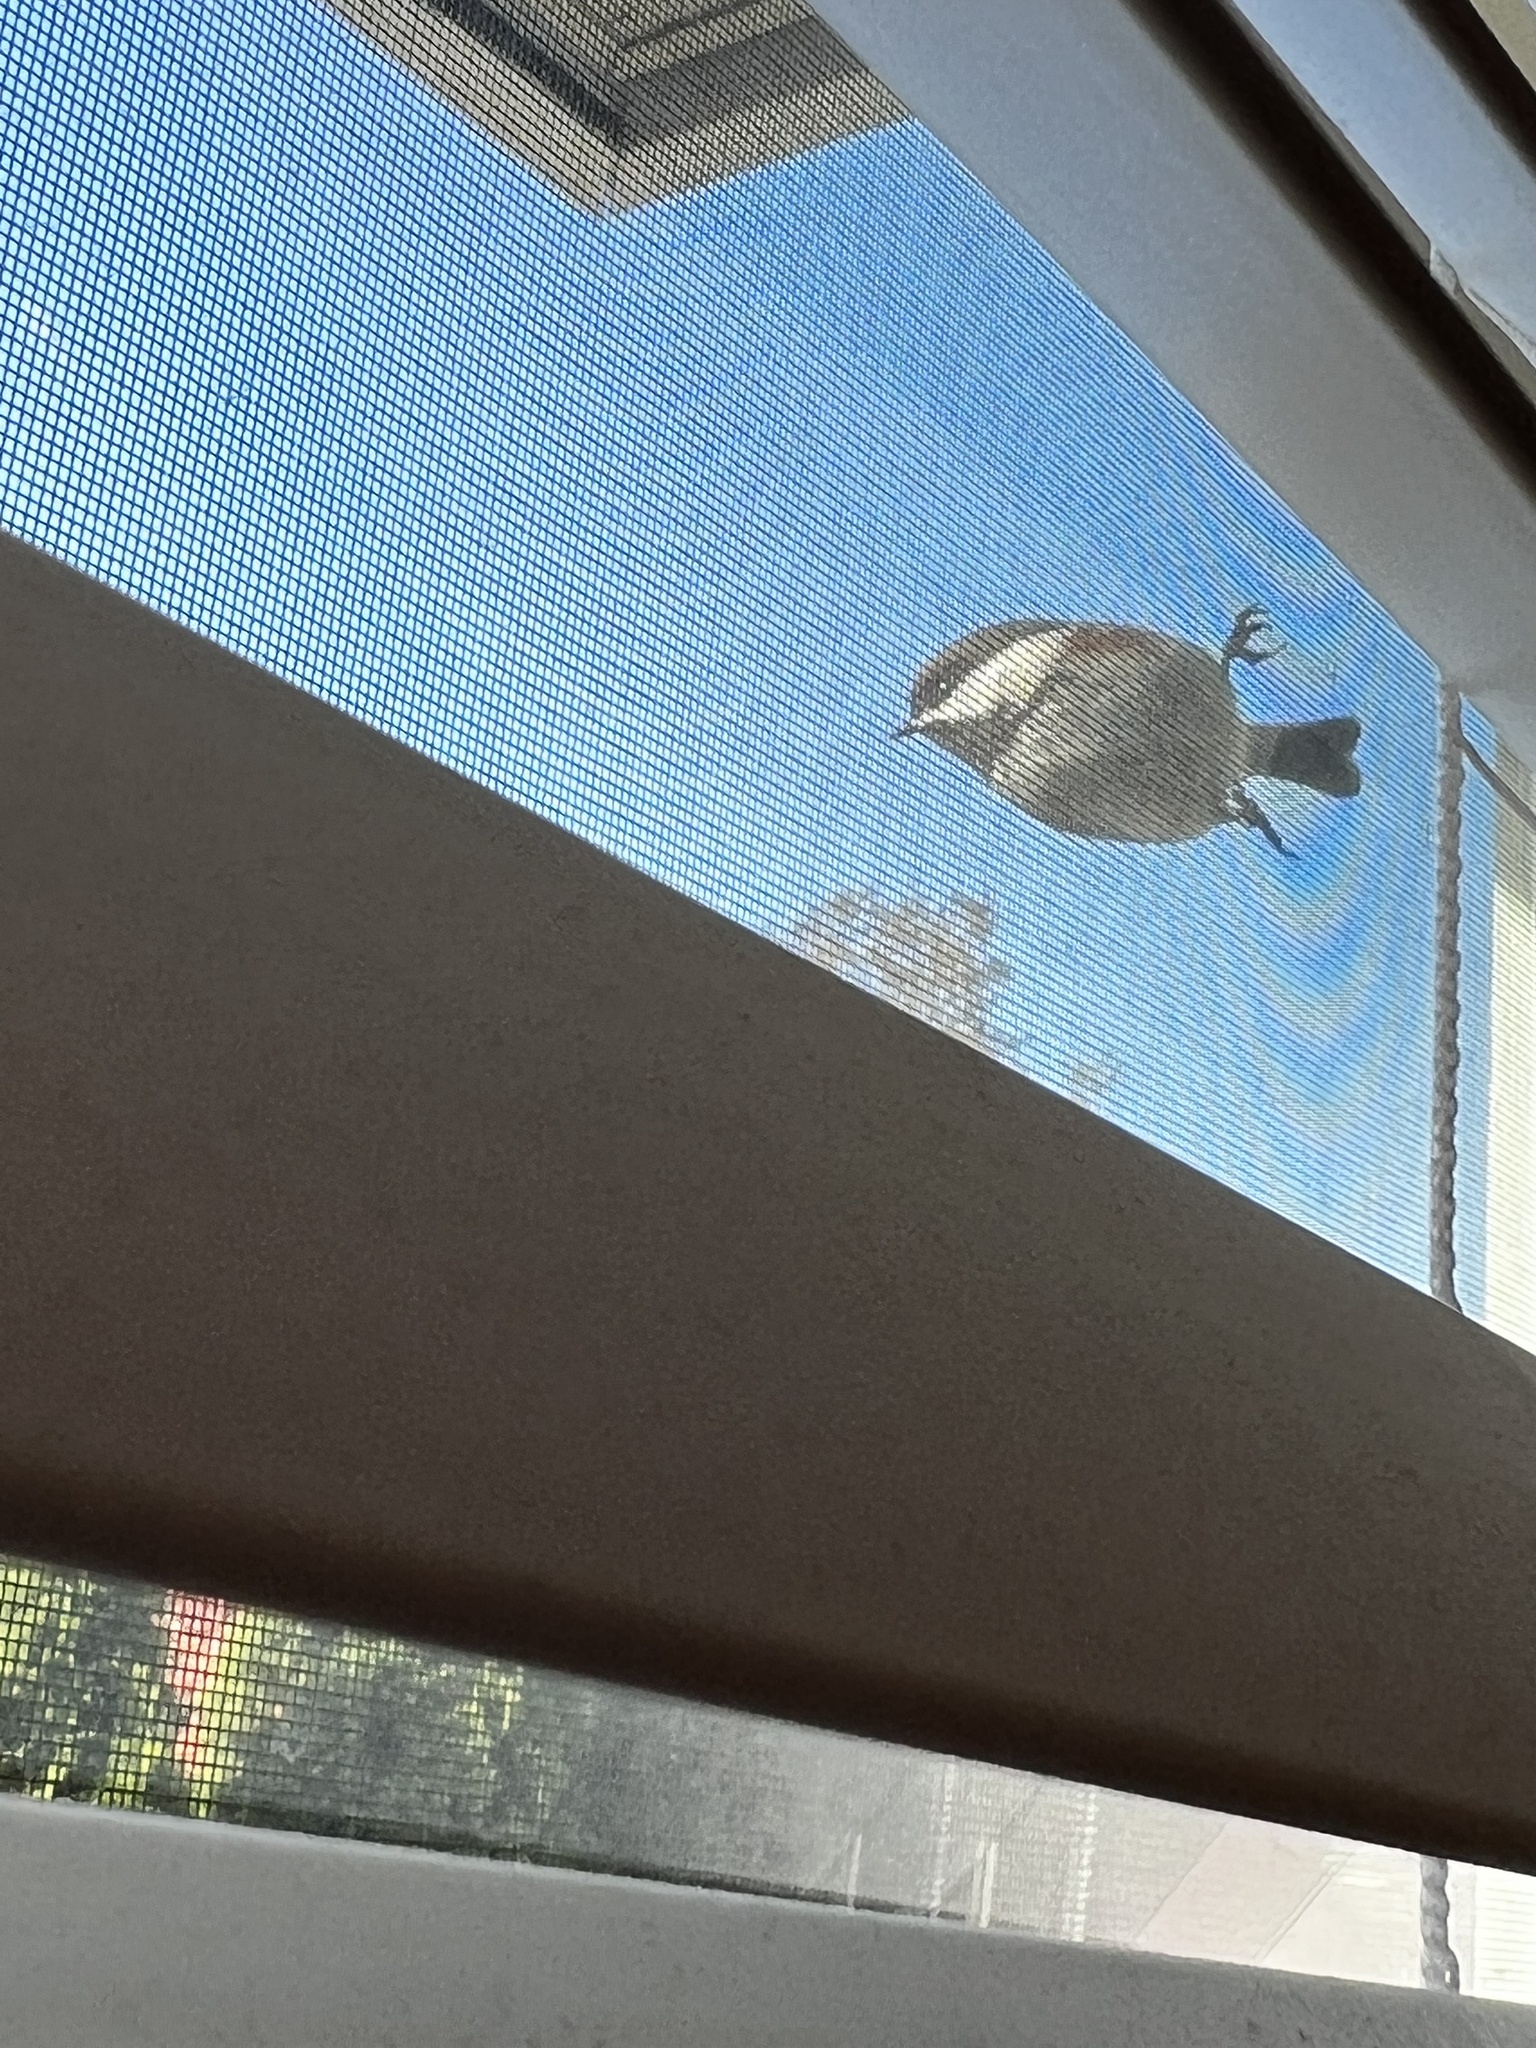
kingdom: Animalia
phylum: Chordata
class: Aves
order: Passeriformes
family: Paridae
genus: Poecile
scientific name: Poecile rufescens
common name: Chestnut-backed chickadee
